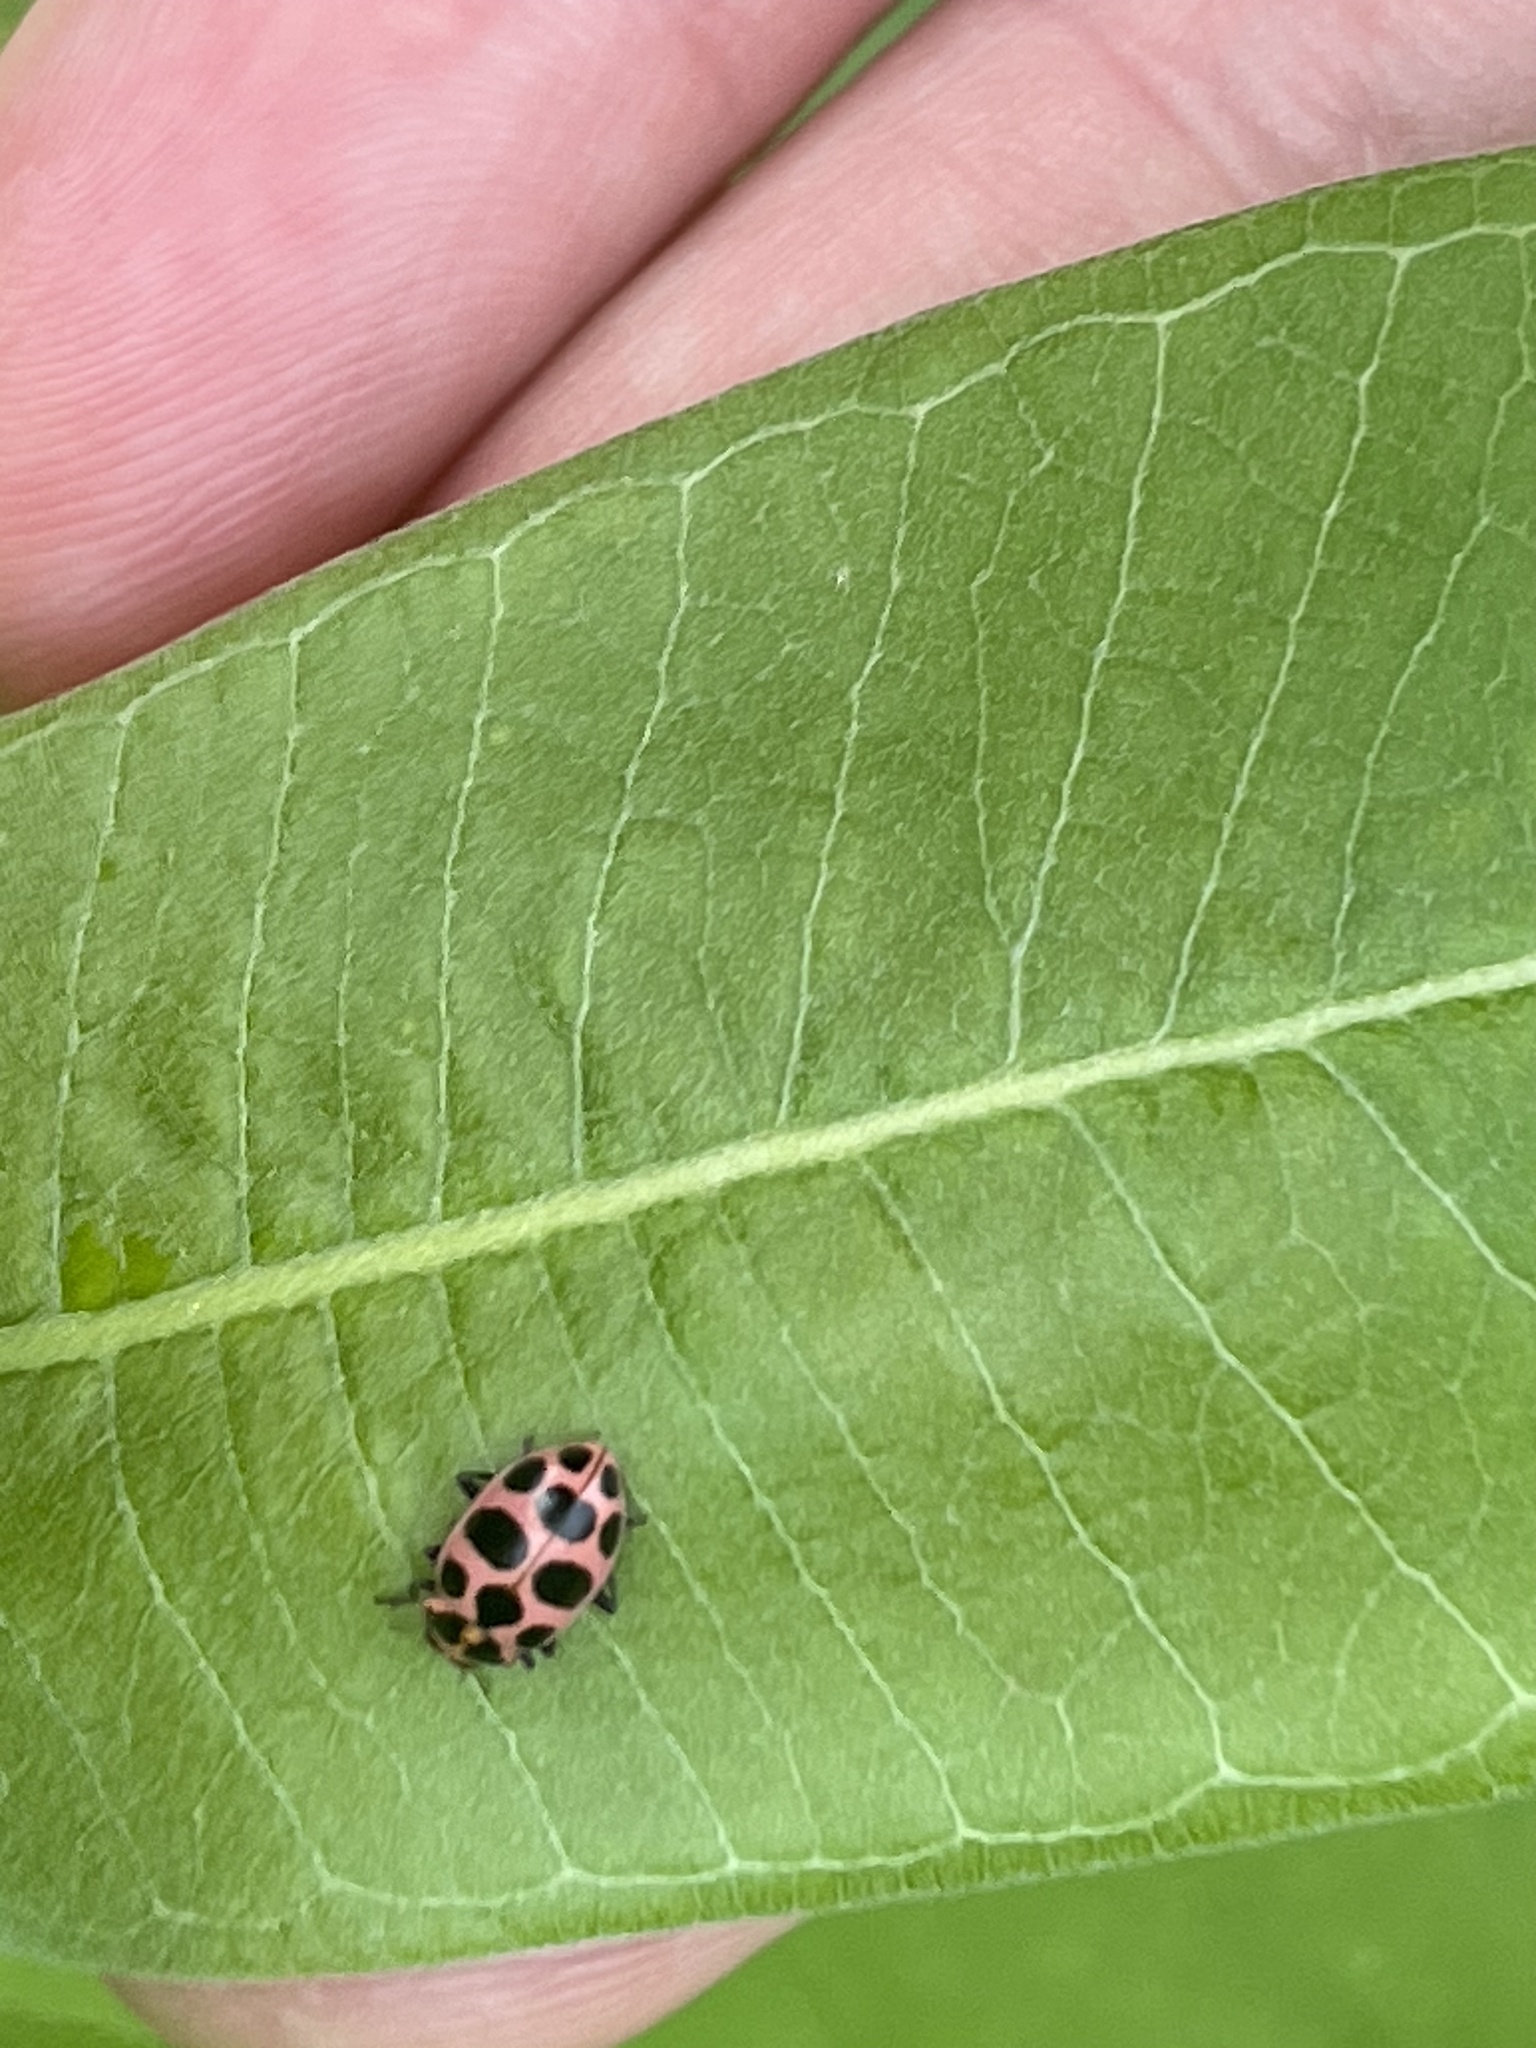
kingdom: Animalia
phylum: Arthropoda
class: Insecta
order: Coleoptera
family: Coccinellidae
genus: Coccinella
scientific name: Coccinella septempunctata
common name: Sevenspotted lady beetle
